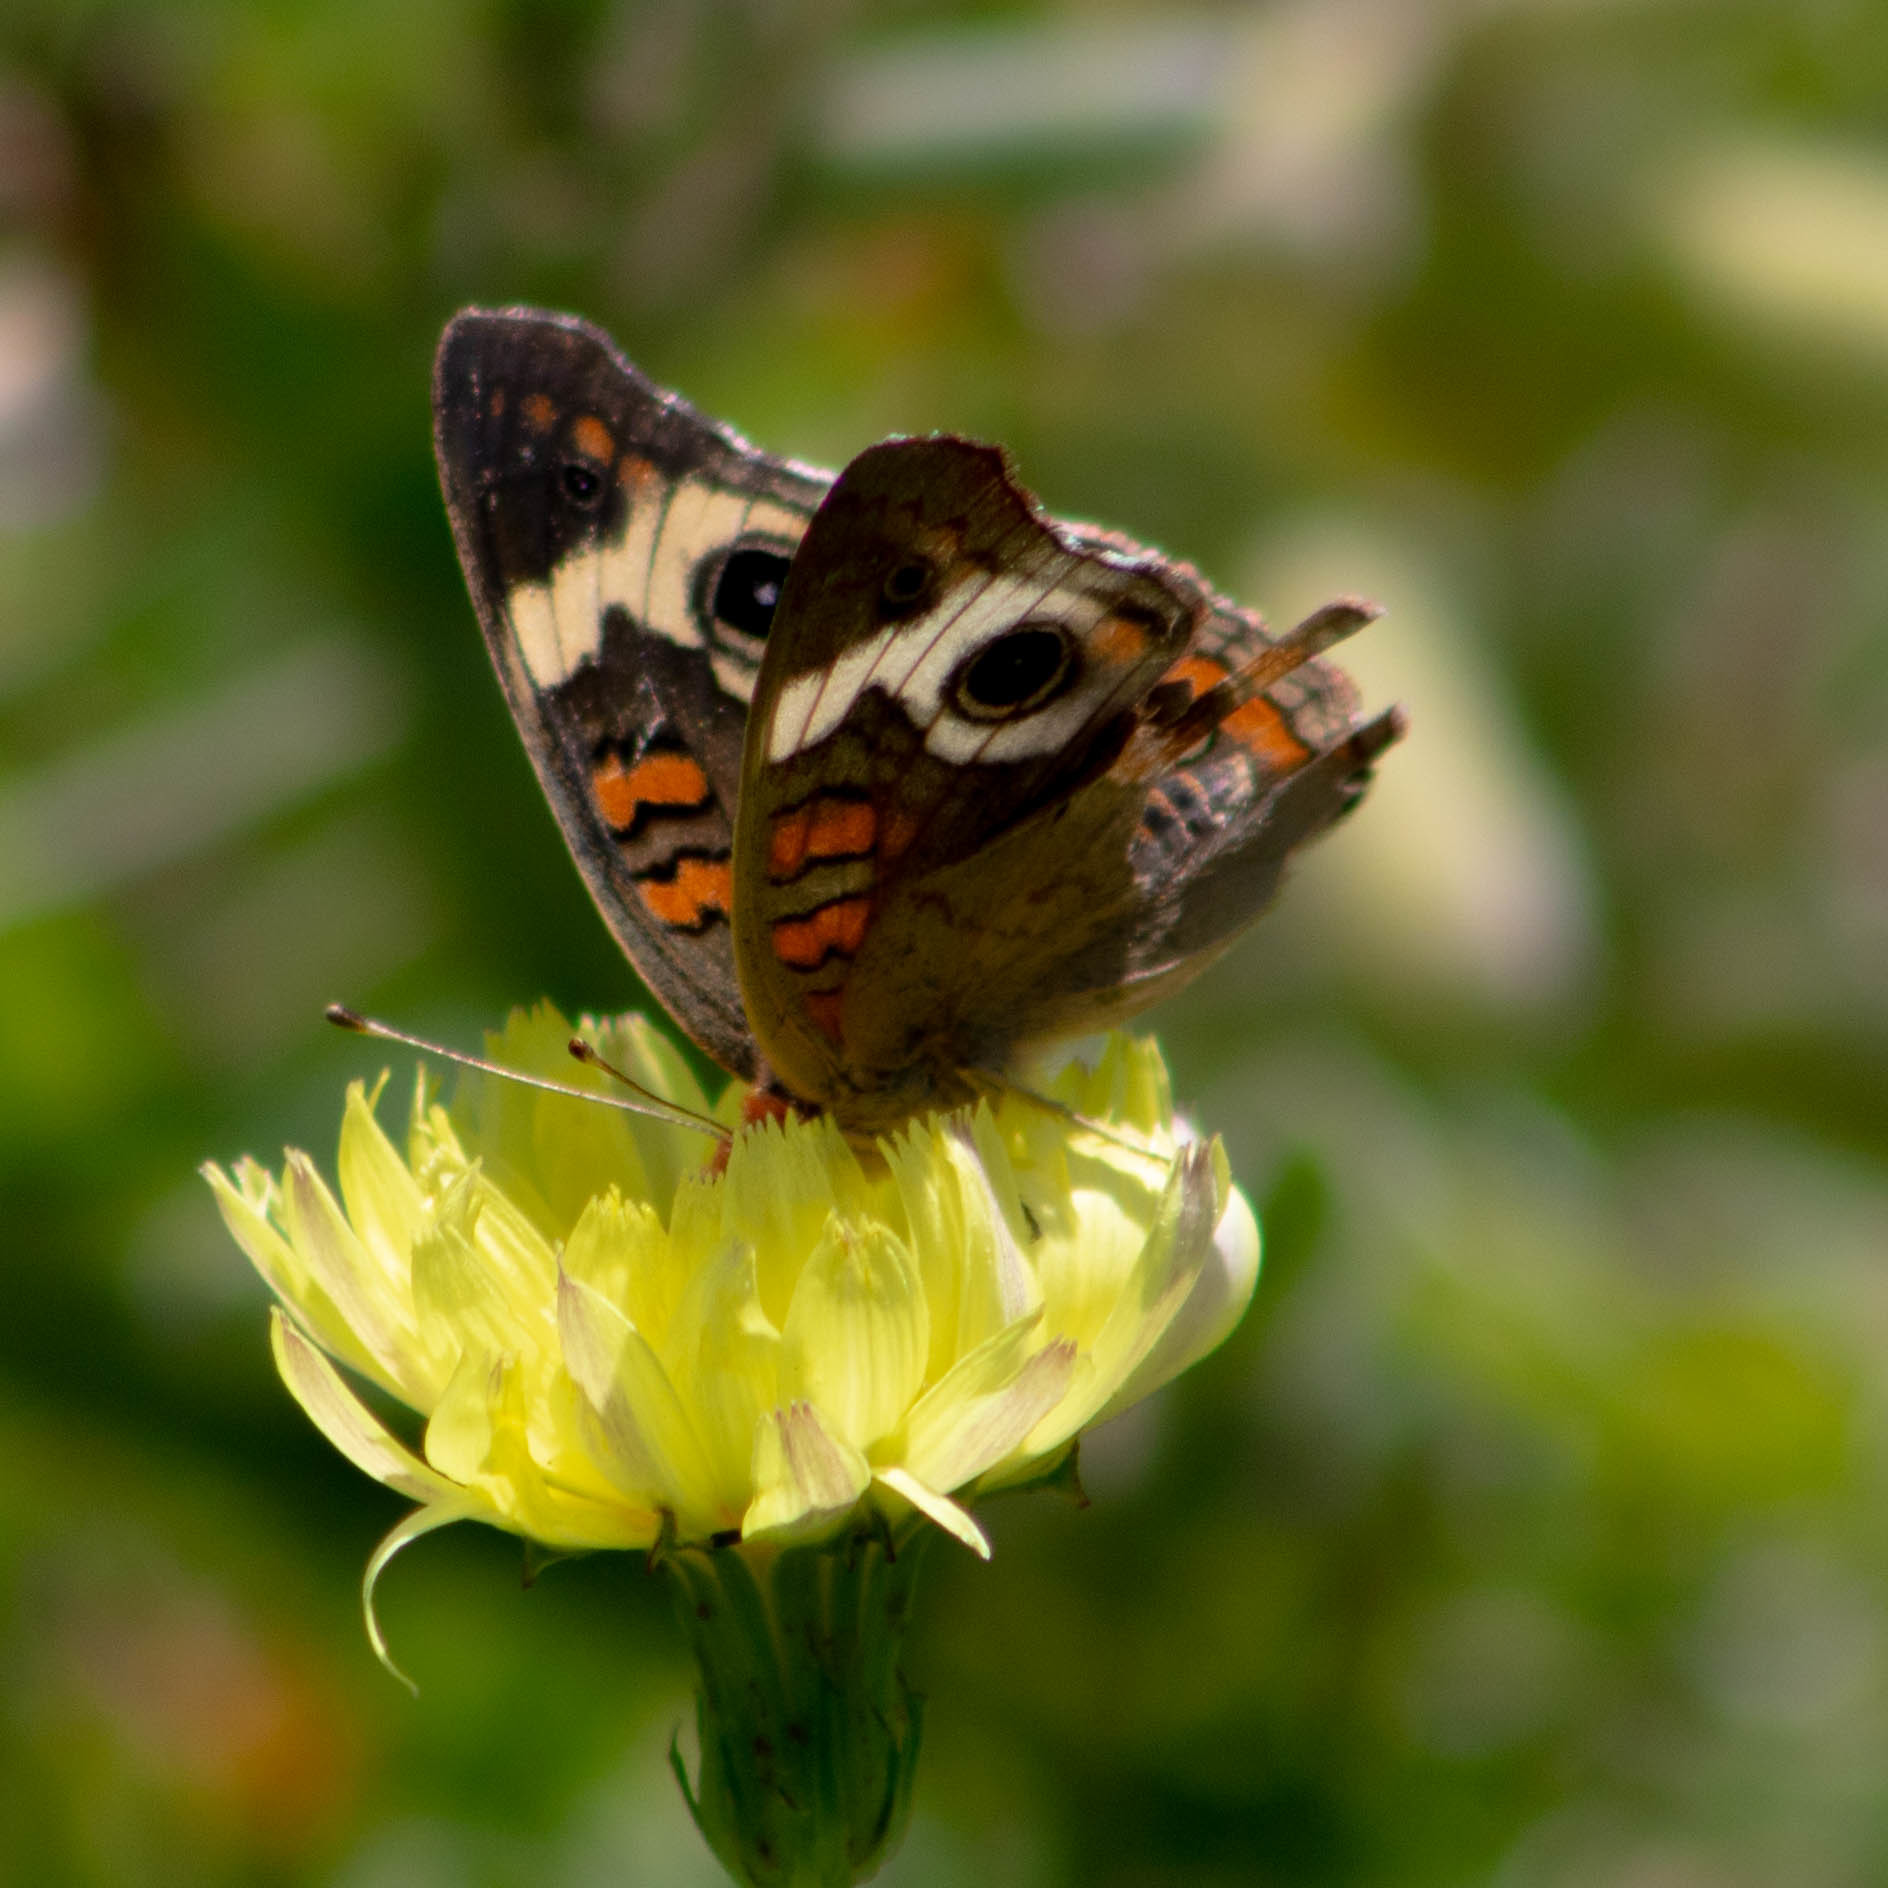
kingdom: Animalia
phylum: Arthropoda
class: Insecta
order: Lepidoptera
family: Nymphalidae
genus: Junonia
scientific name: Junonia coenia
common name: Common buckeye
